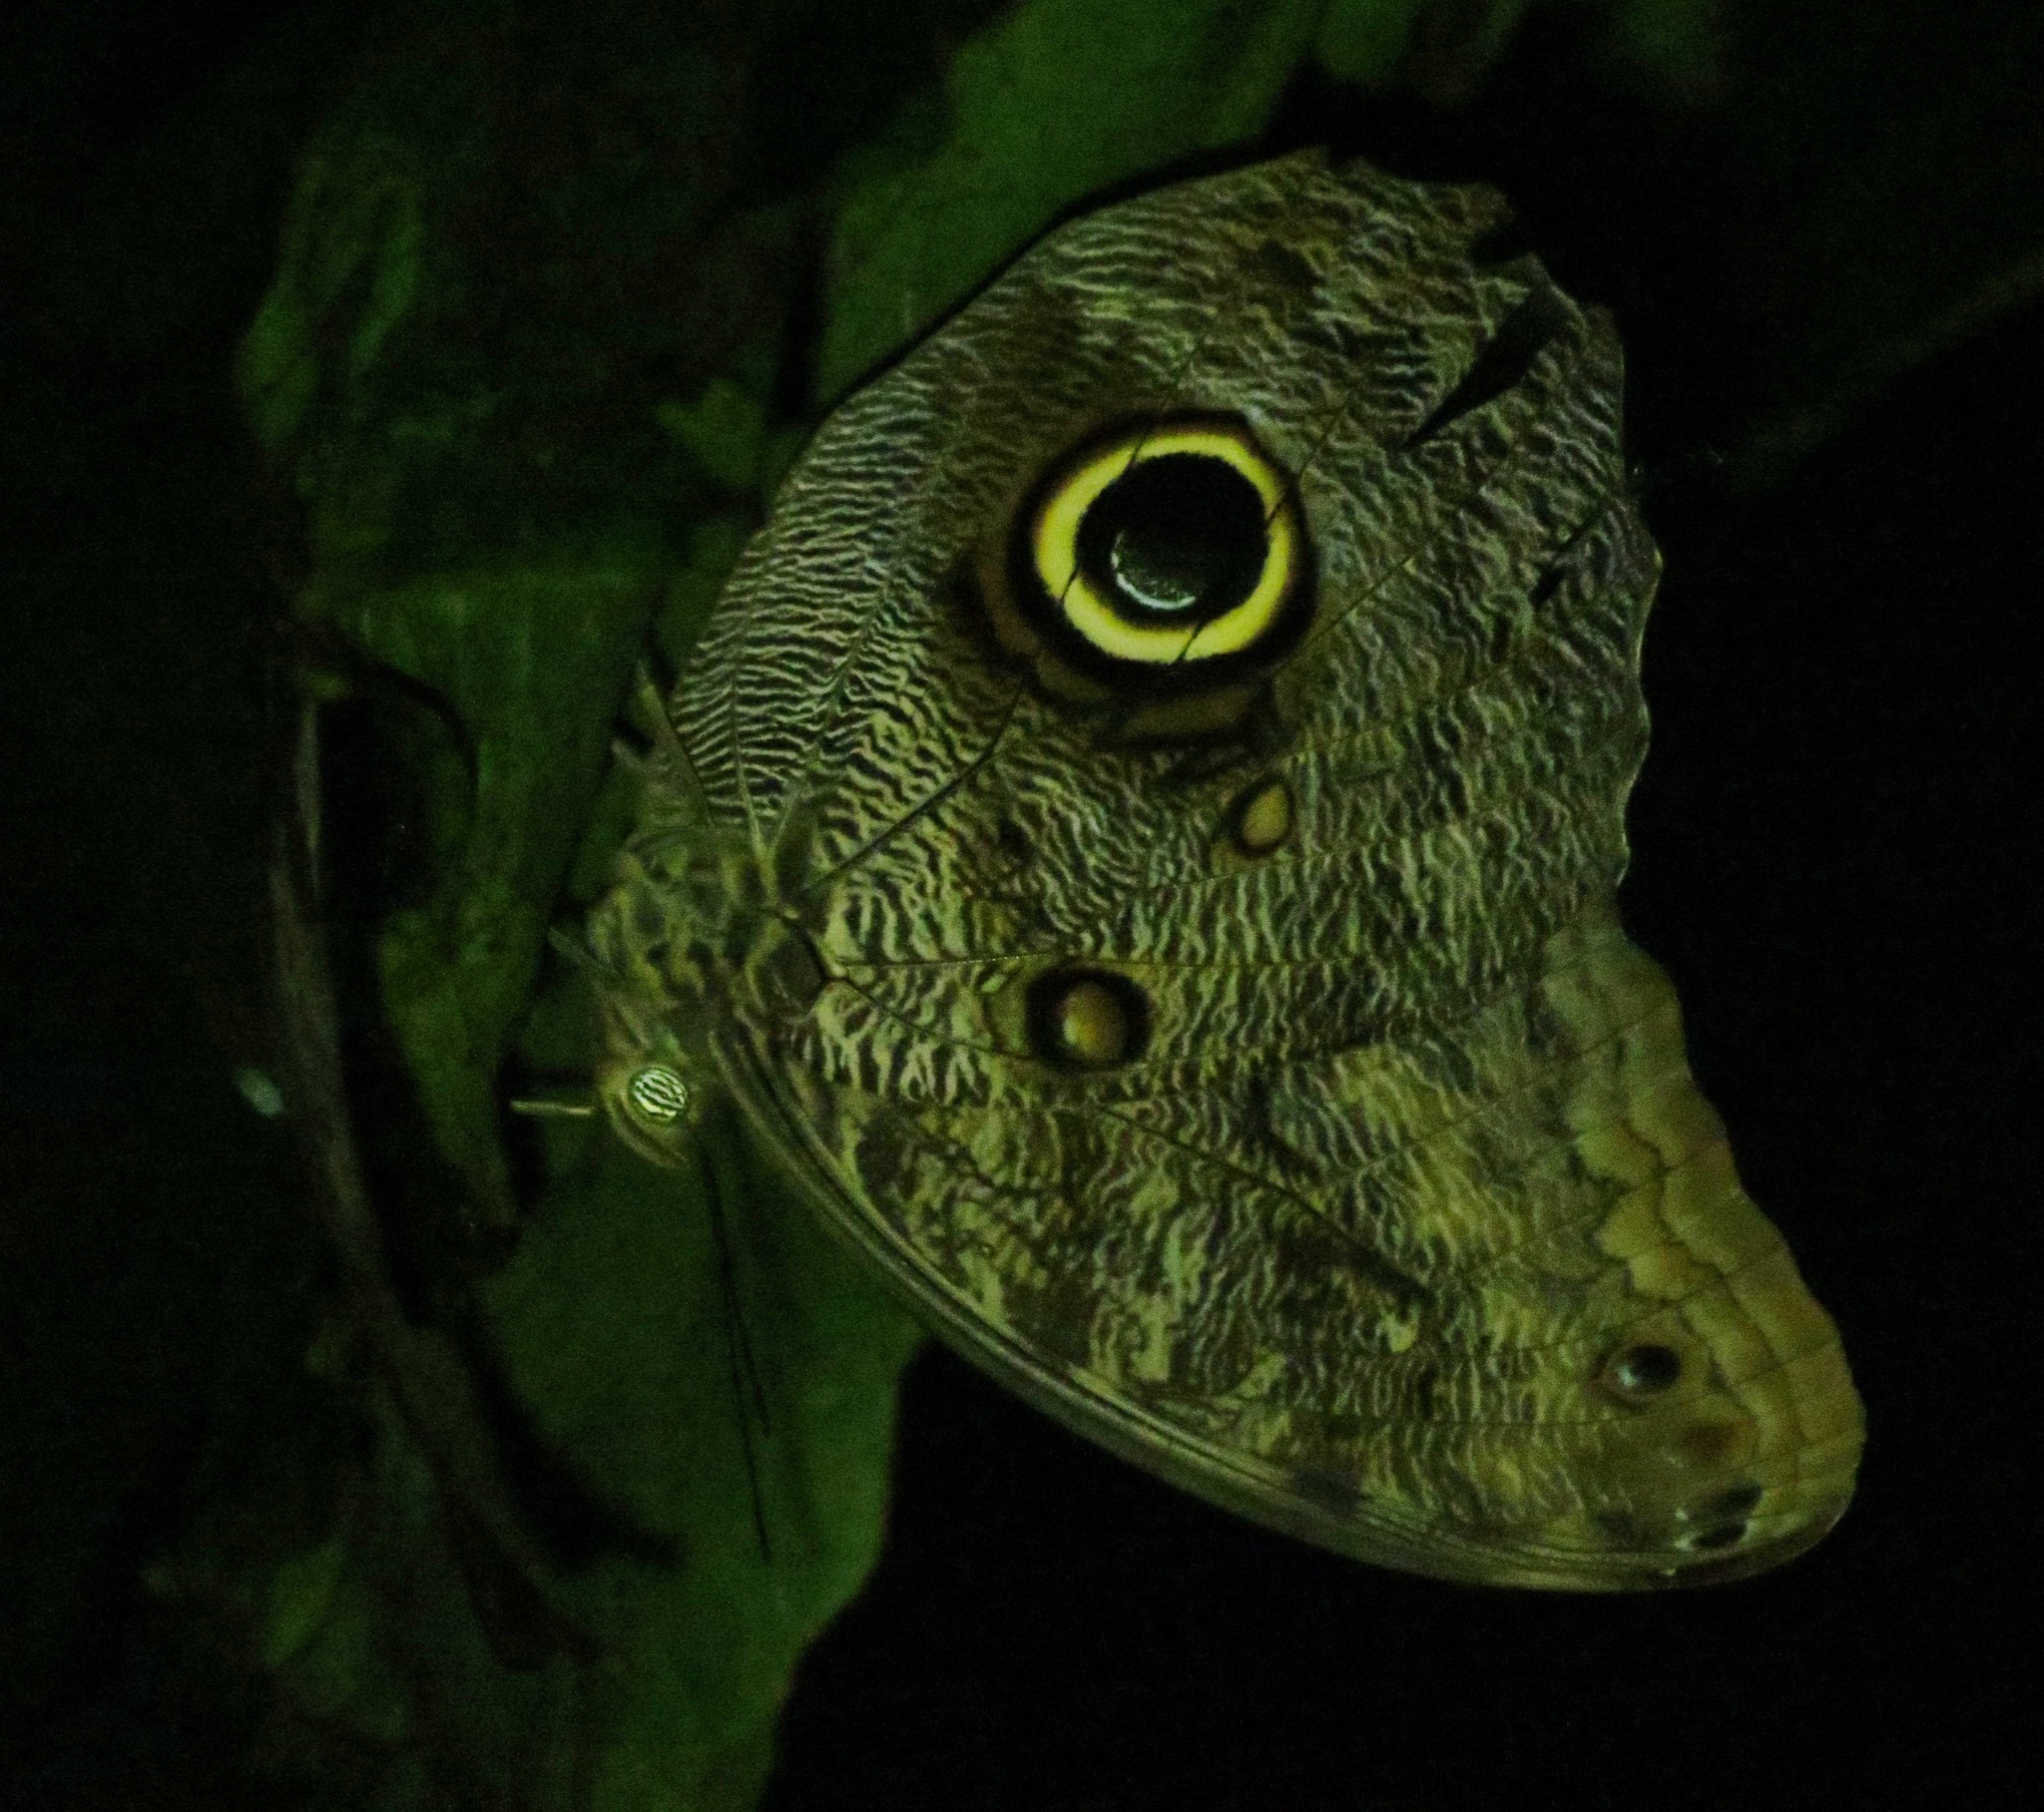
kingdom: Animalia
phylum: Arthropoda
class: Insecta
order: Lepidoptera
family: Nymphalidae
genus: Caligo
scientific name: Caligo brasiliensis
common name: Dark owl-butterfly
